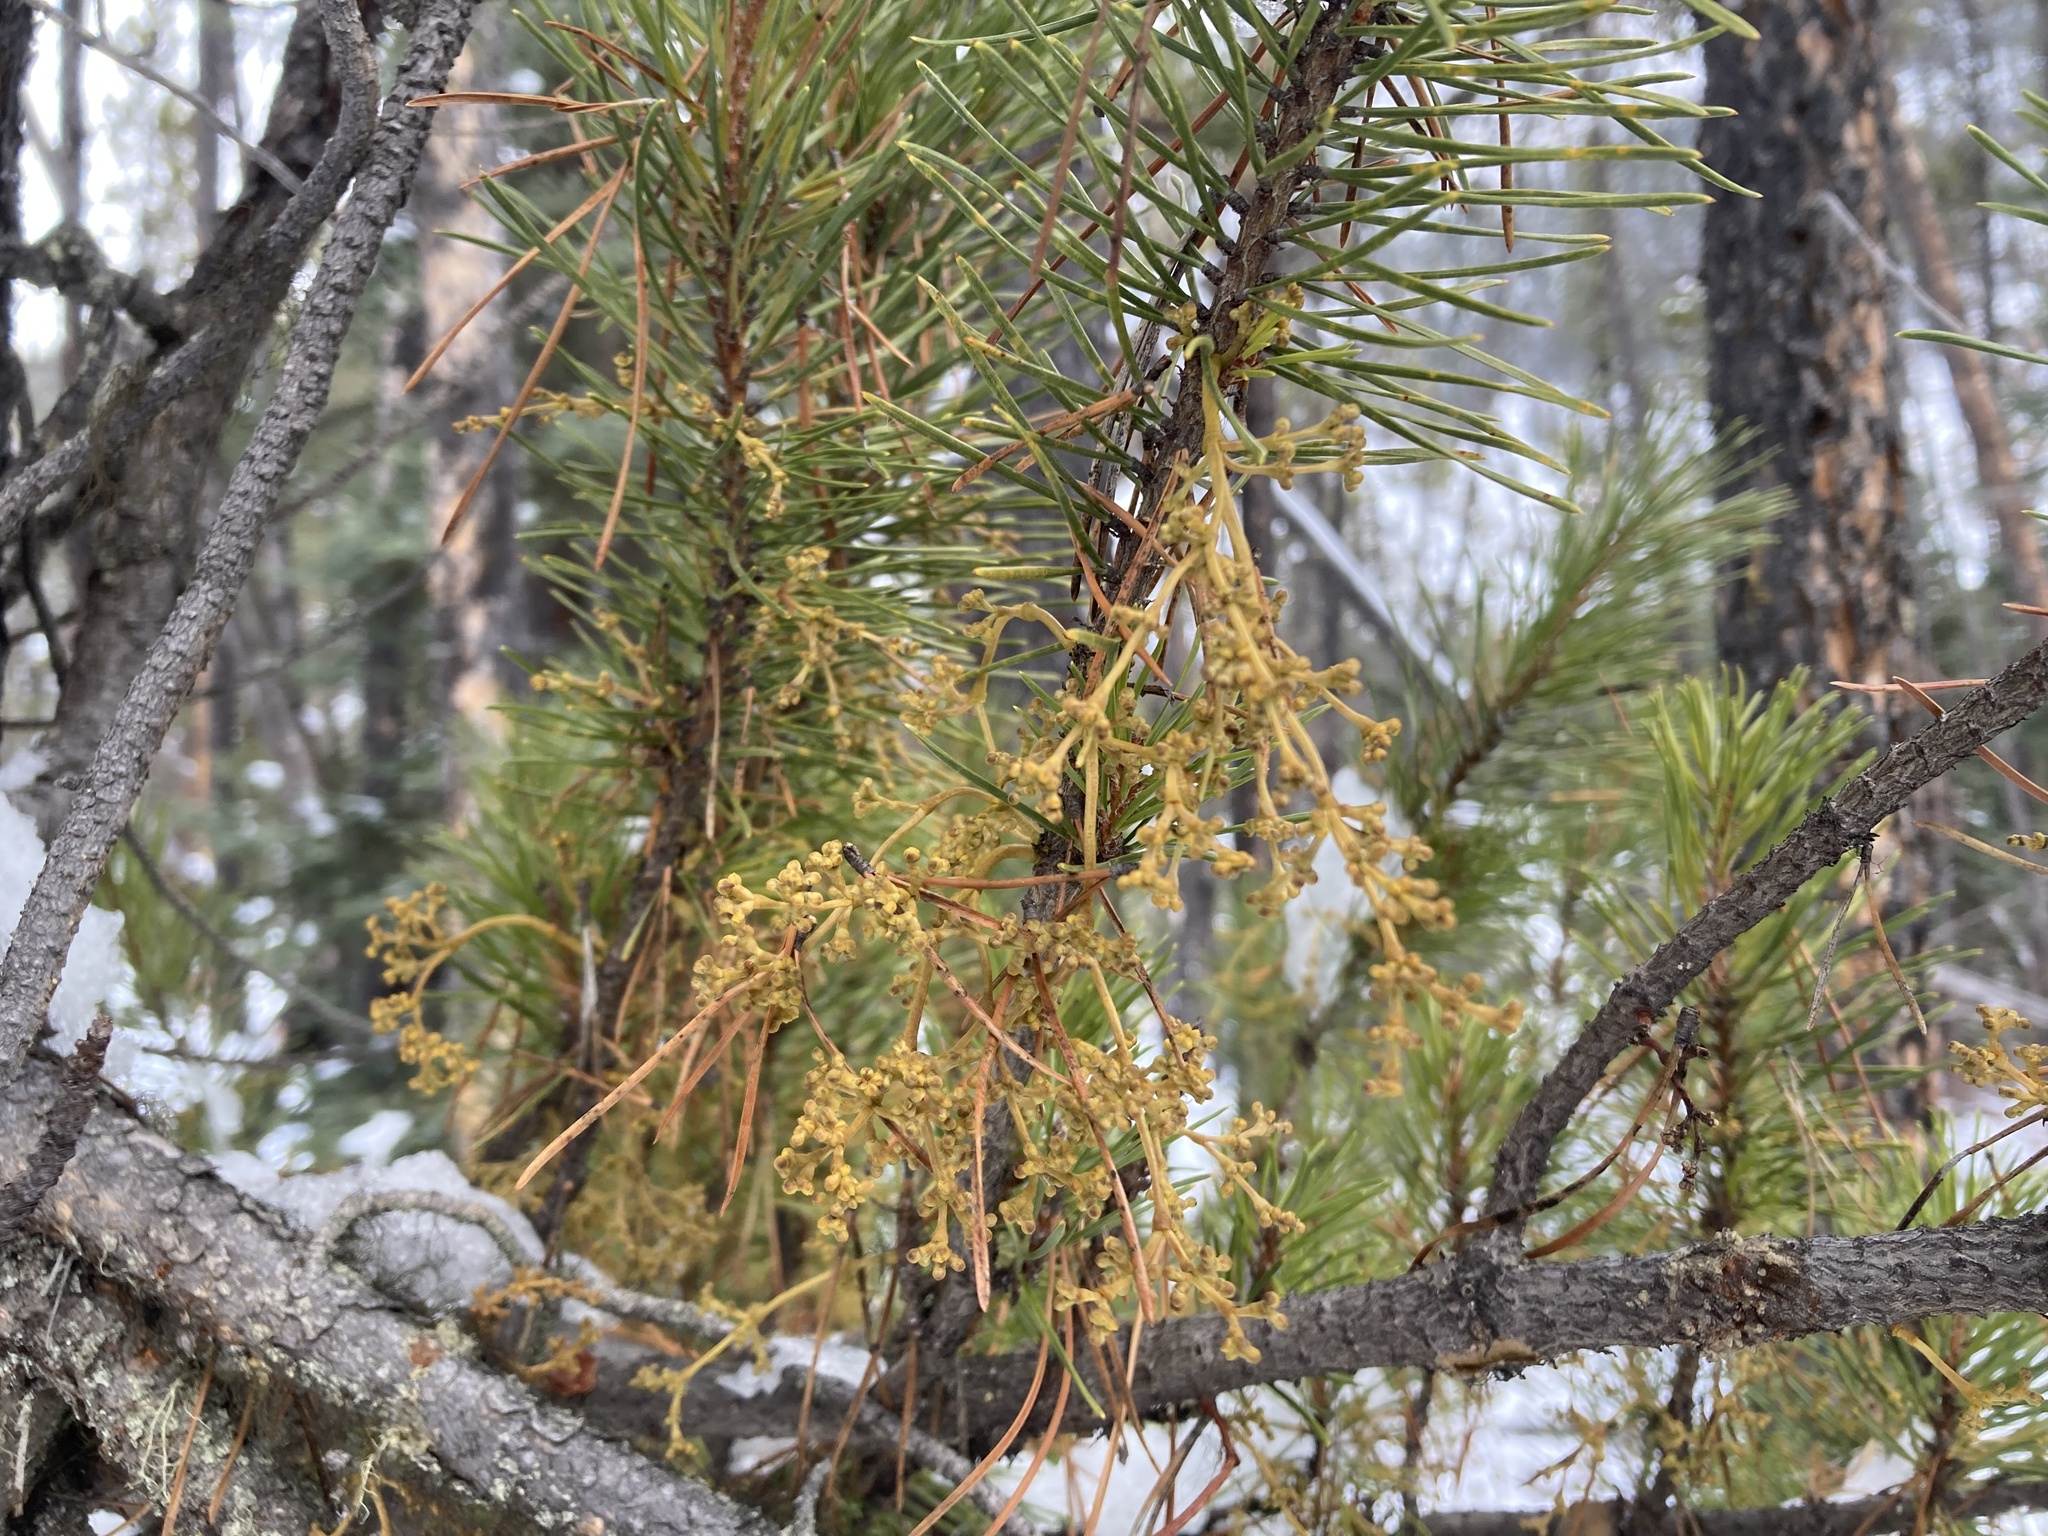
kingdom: Plantae
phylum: Tracheophyta
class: Magnoliopsida
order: Santalales
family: Viscaceae
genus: Arceuthobium
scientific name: Arceuthobium americanum
